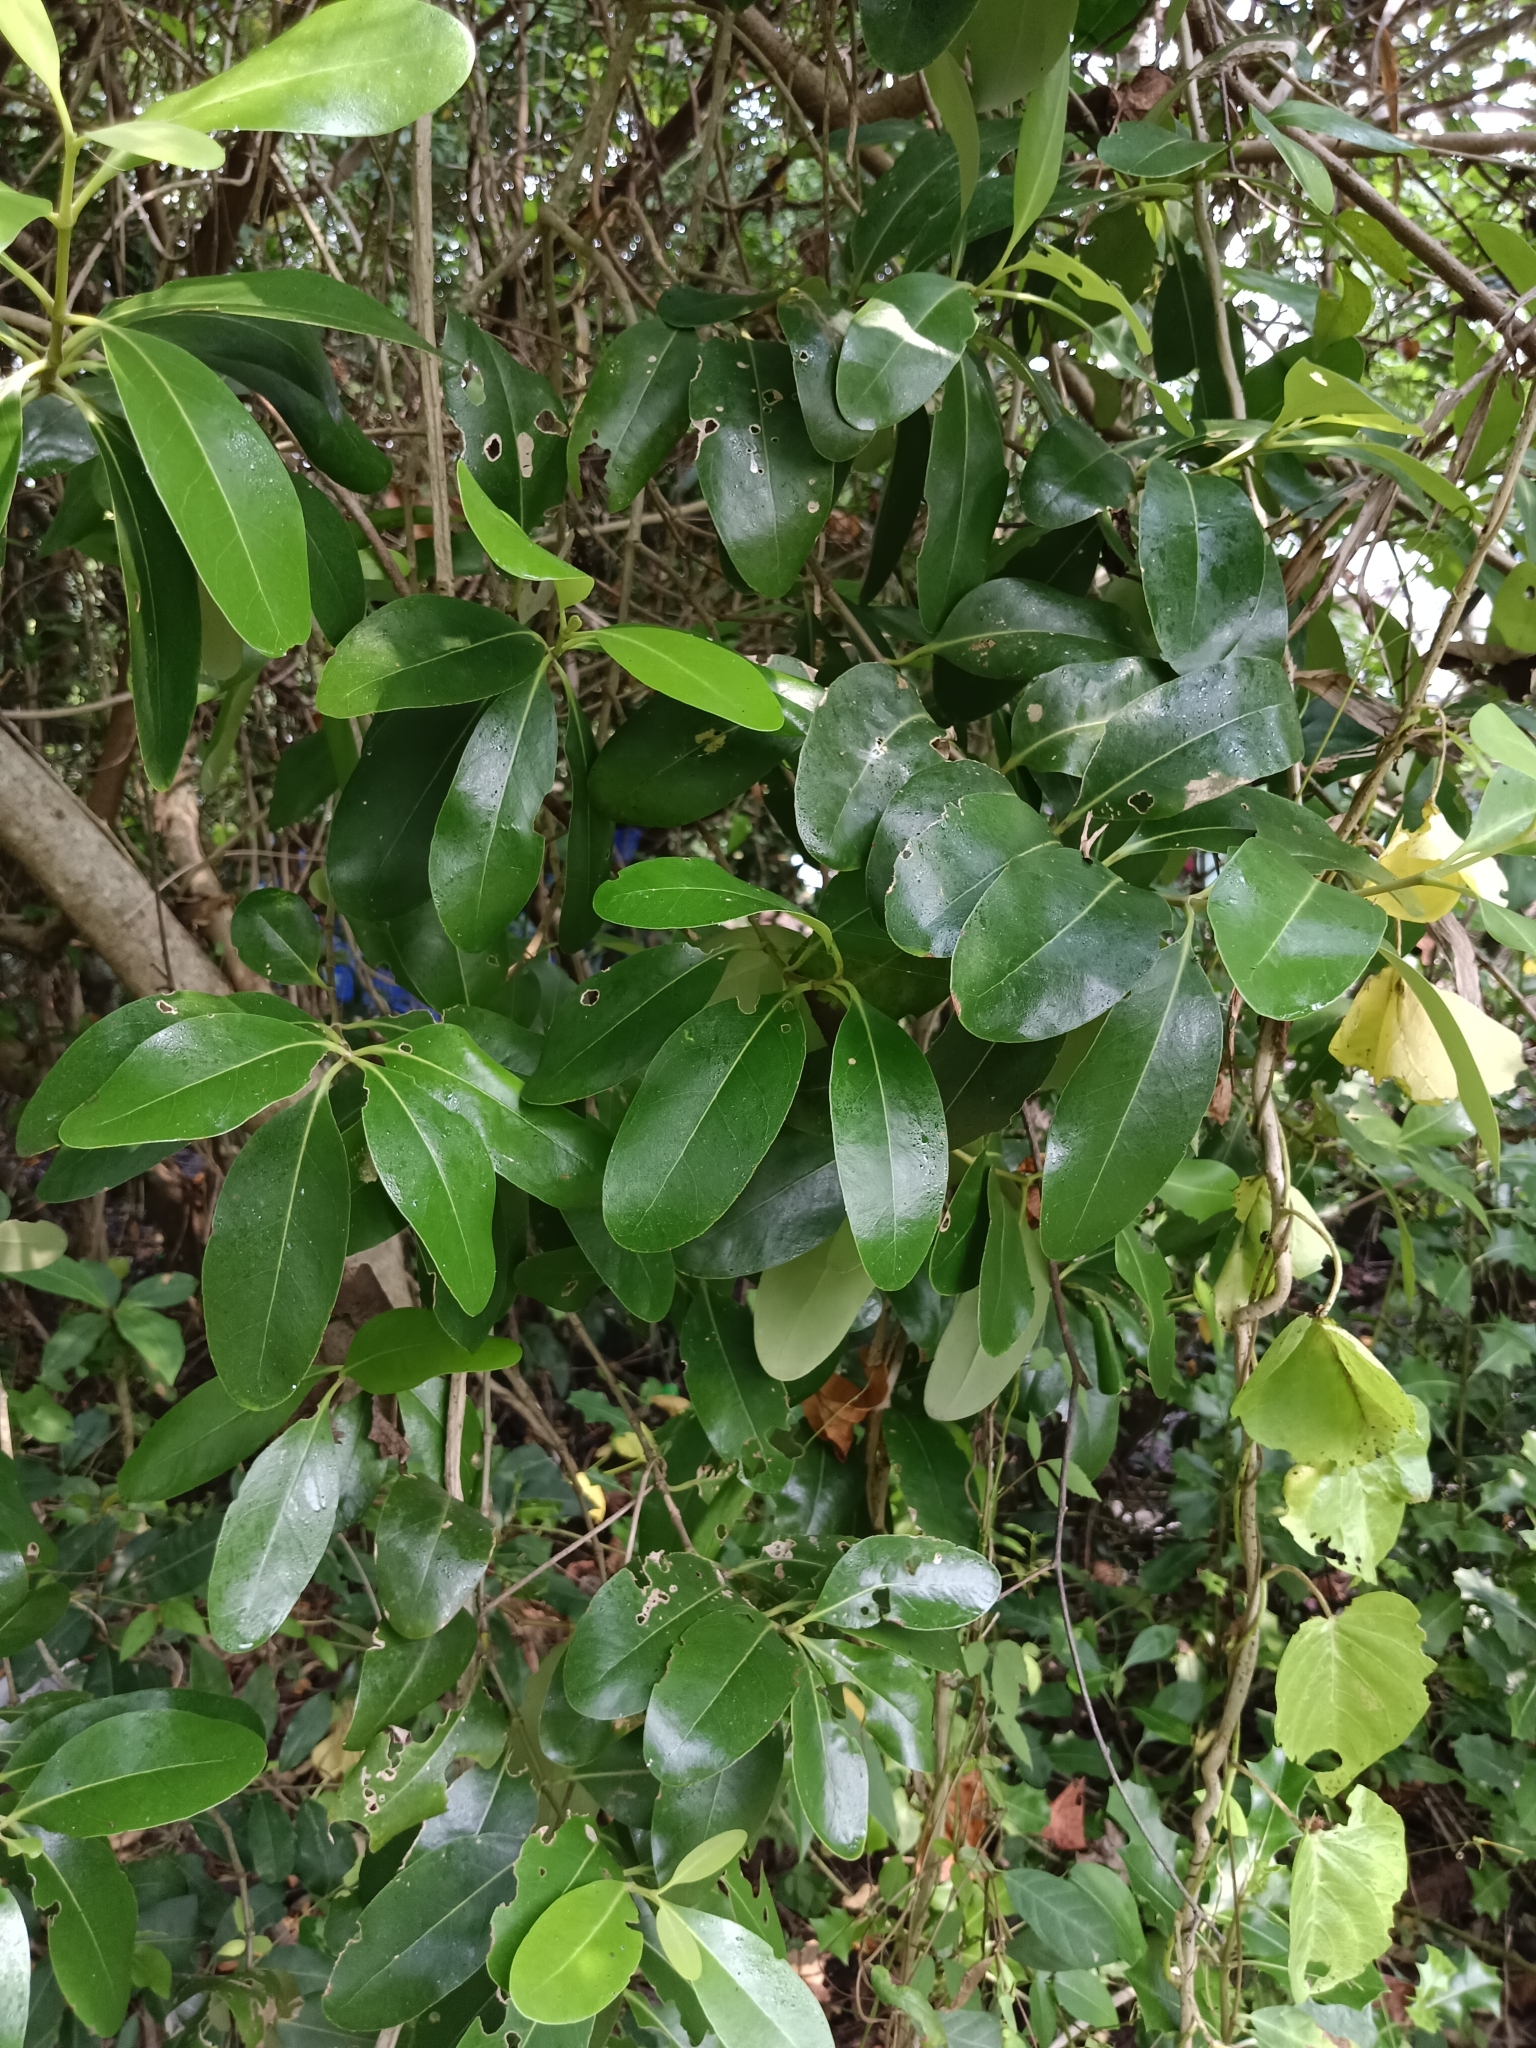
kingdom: Plantae
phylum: Tracheophyta
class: Magnoliopsida
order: Lamiales
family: Acanthaceae
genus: Avicennia
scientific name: Avicennia marina
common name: Gray mangrove
